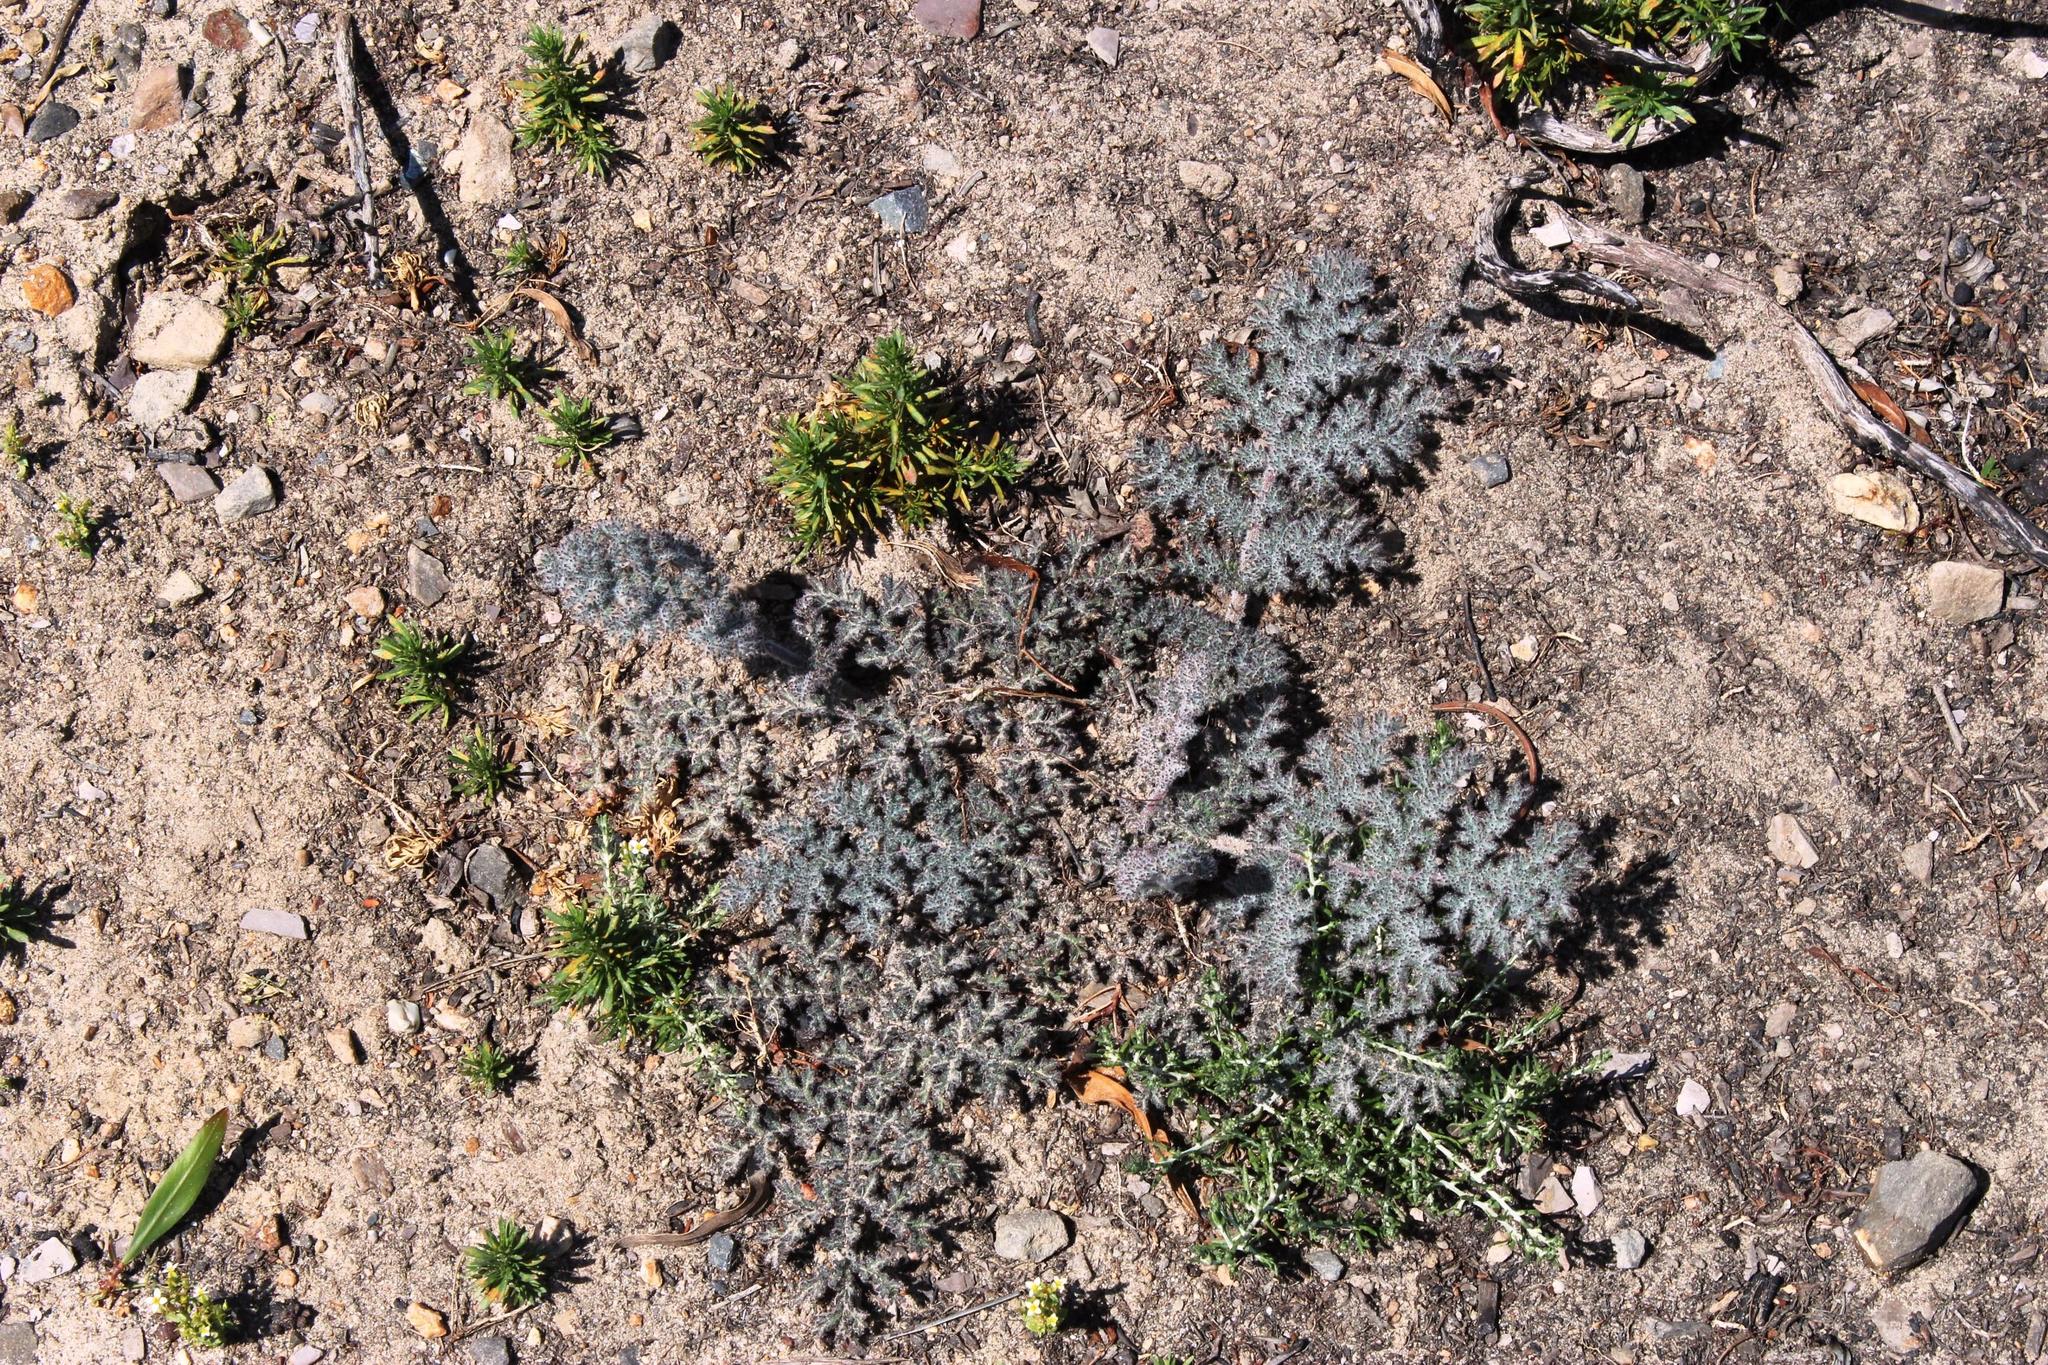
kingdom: Plantae
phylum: Tracheophyta
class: Magnoliopsida
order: Geraniales
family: Geraniaceae
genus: Pelargonium
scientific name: Pelargonium triste
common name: Night-scent pelargonium
